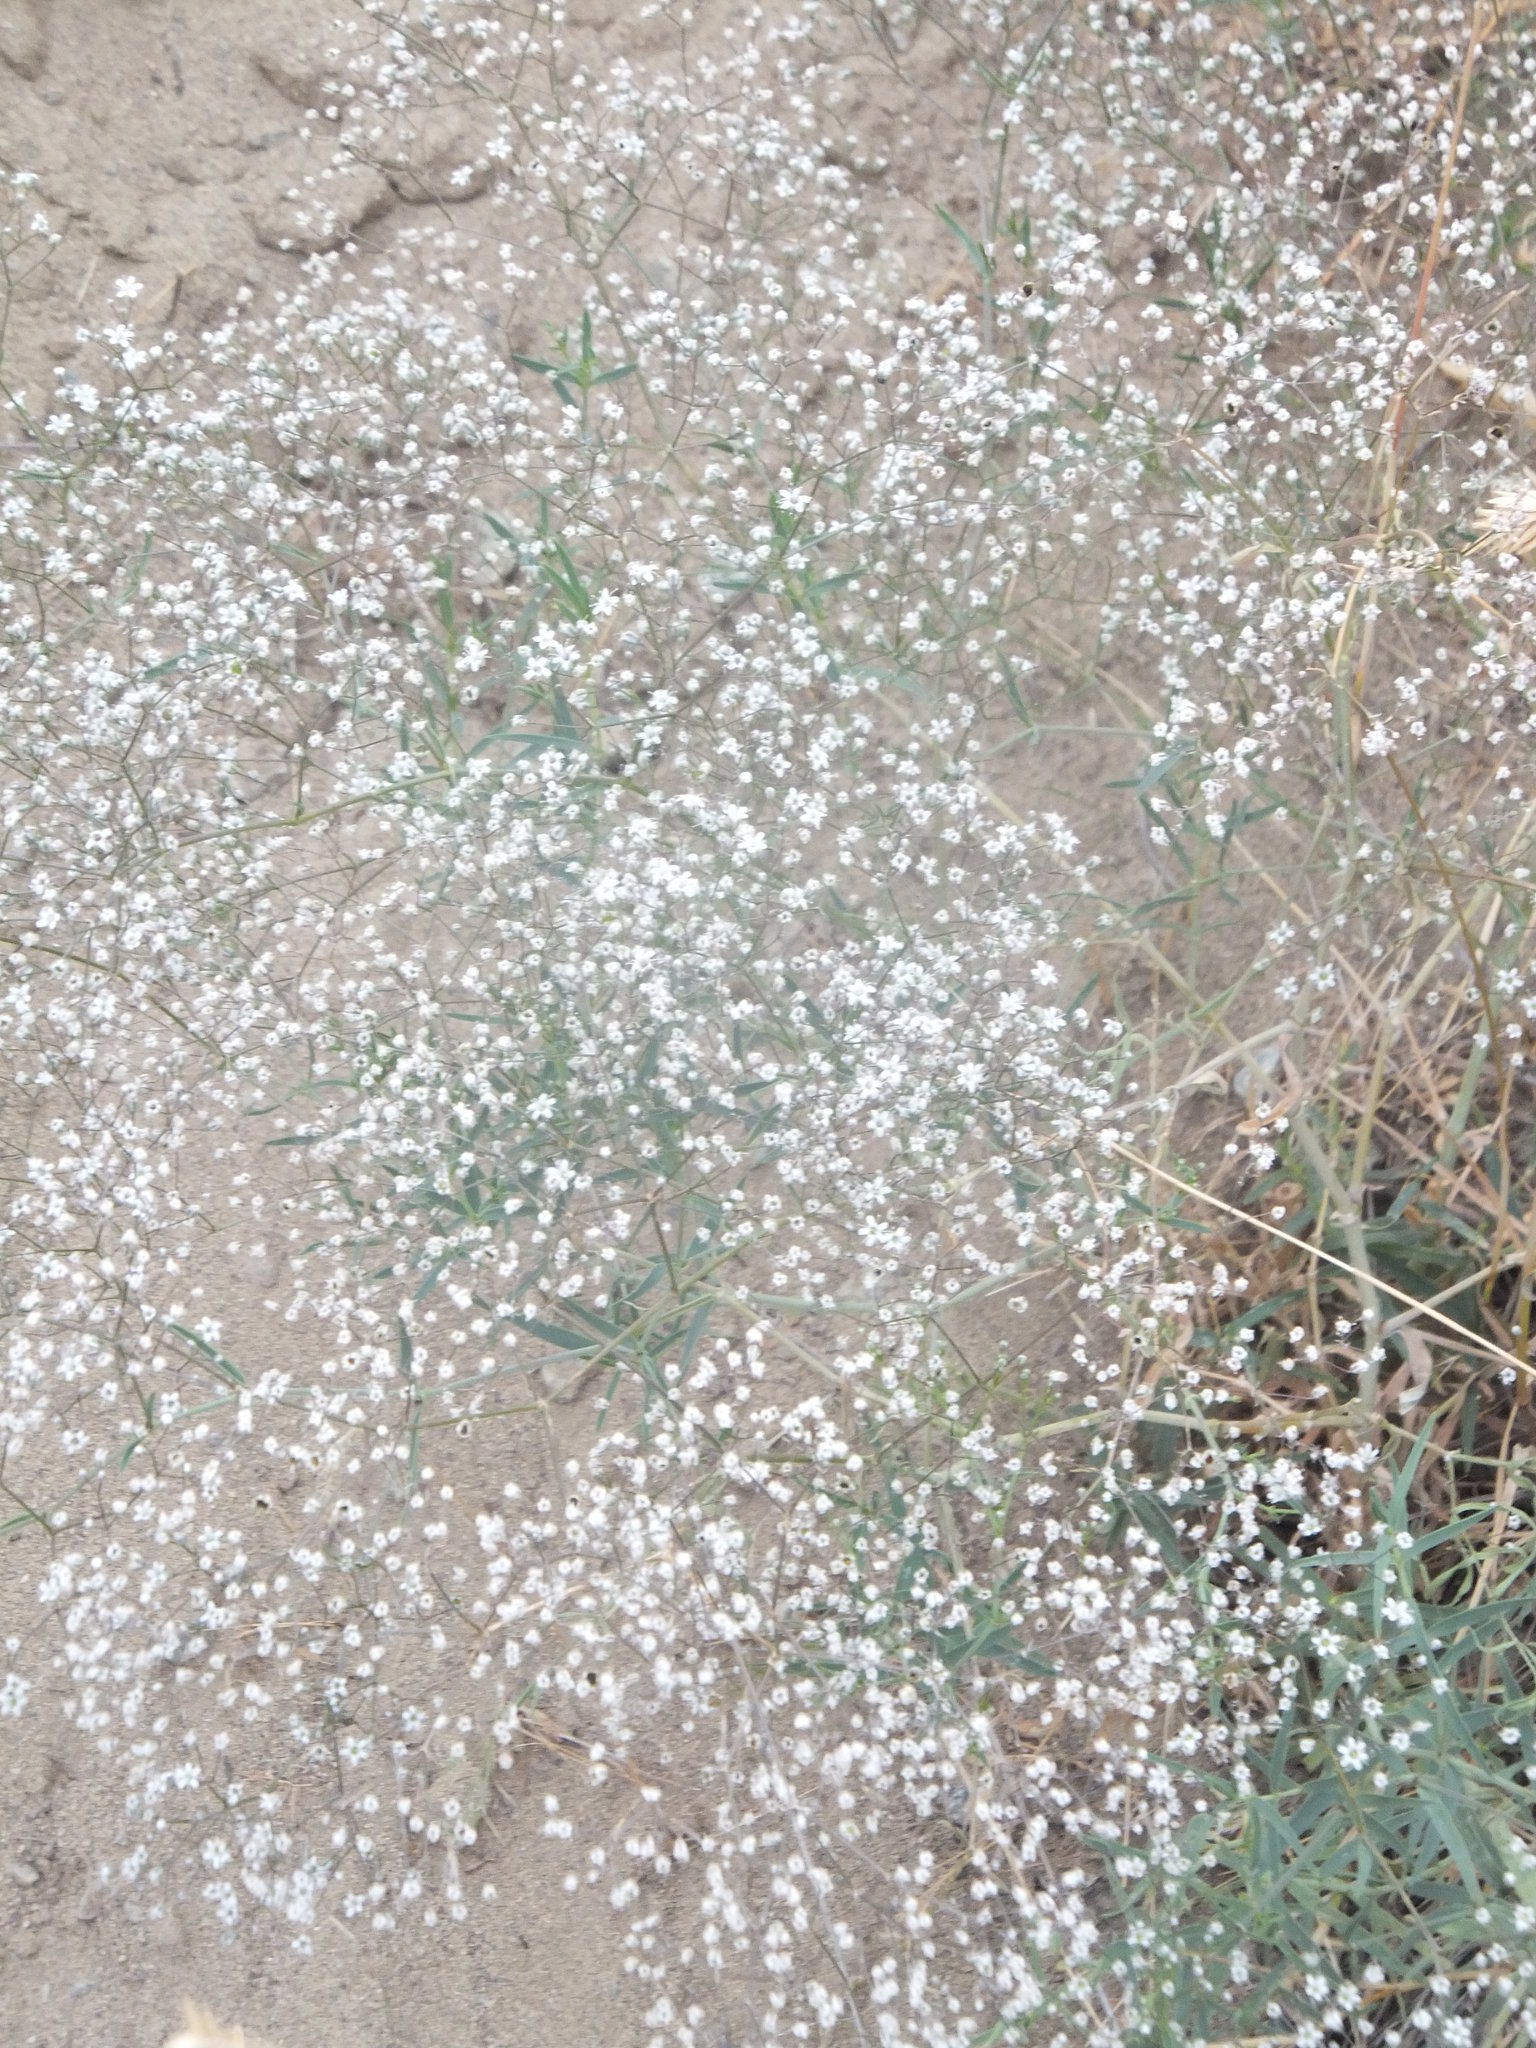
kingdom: Plantae
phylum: Tracheophyta
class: Magnoliopsida
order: Caryophyllales
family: Caryophyllaceae
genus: Gypsophila
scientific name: Gypsophila paniculata
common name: Baby's-breath
